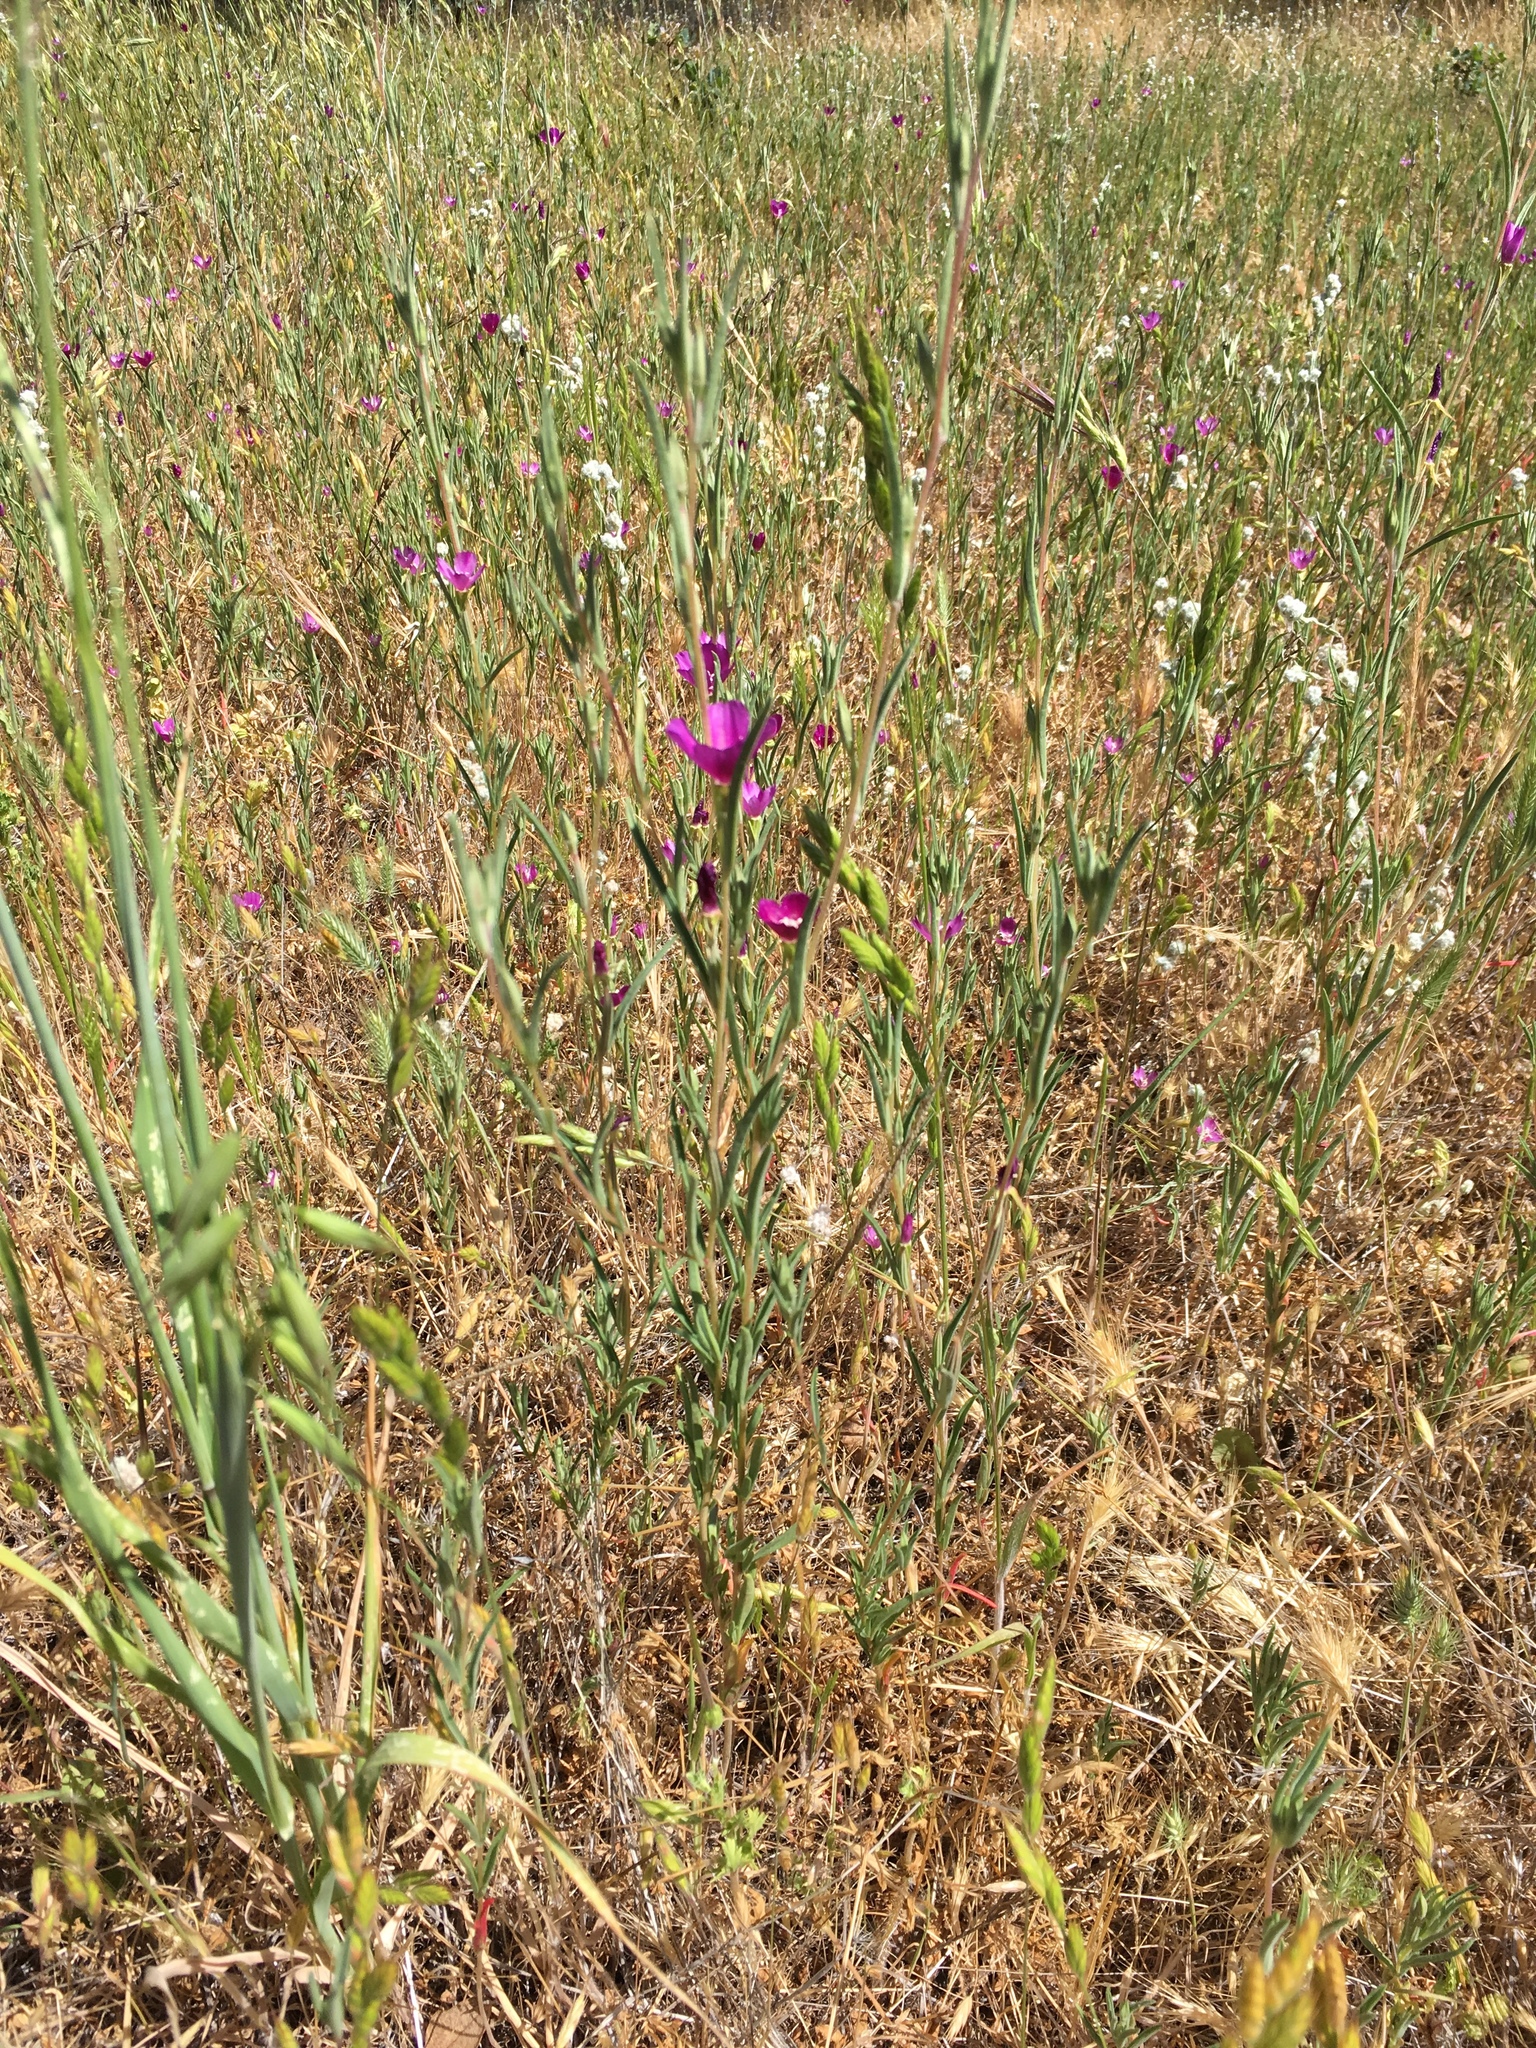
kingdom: Plantae
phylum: Tracheophyta
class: Magnoliopsida
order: Myrtales
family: Onagraceae
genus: Clarkia
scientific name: Clarkia purpurea
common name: Purple clarkia
